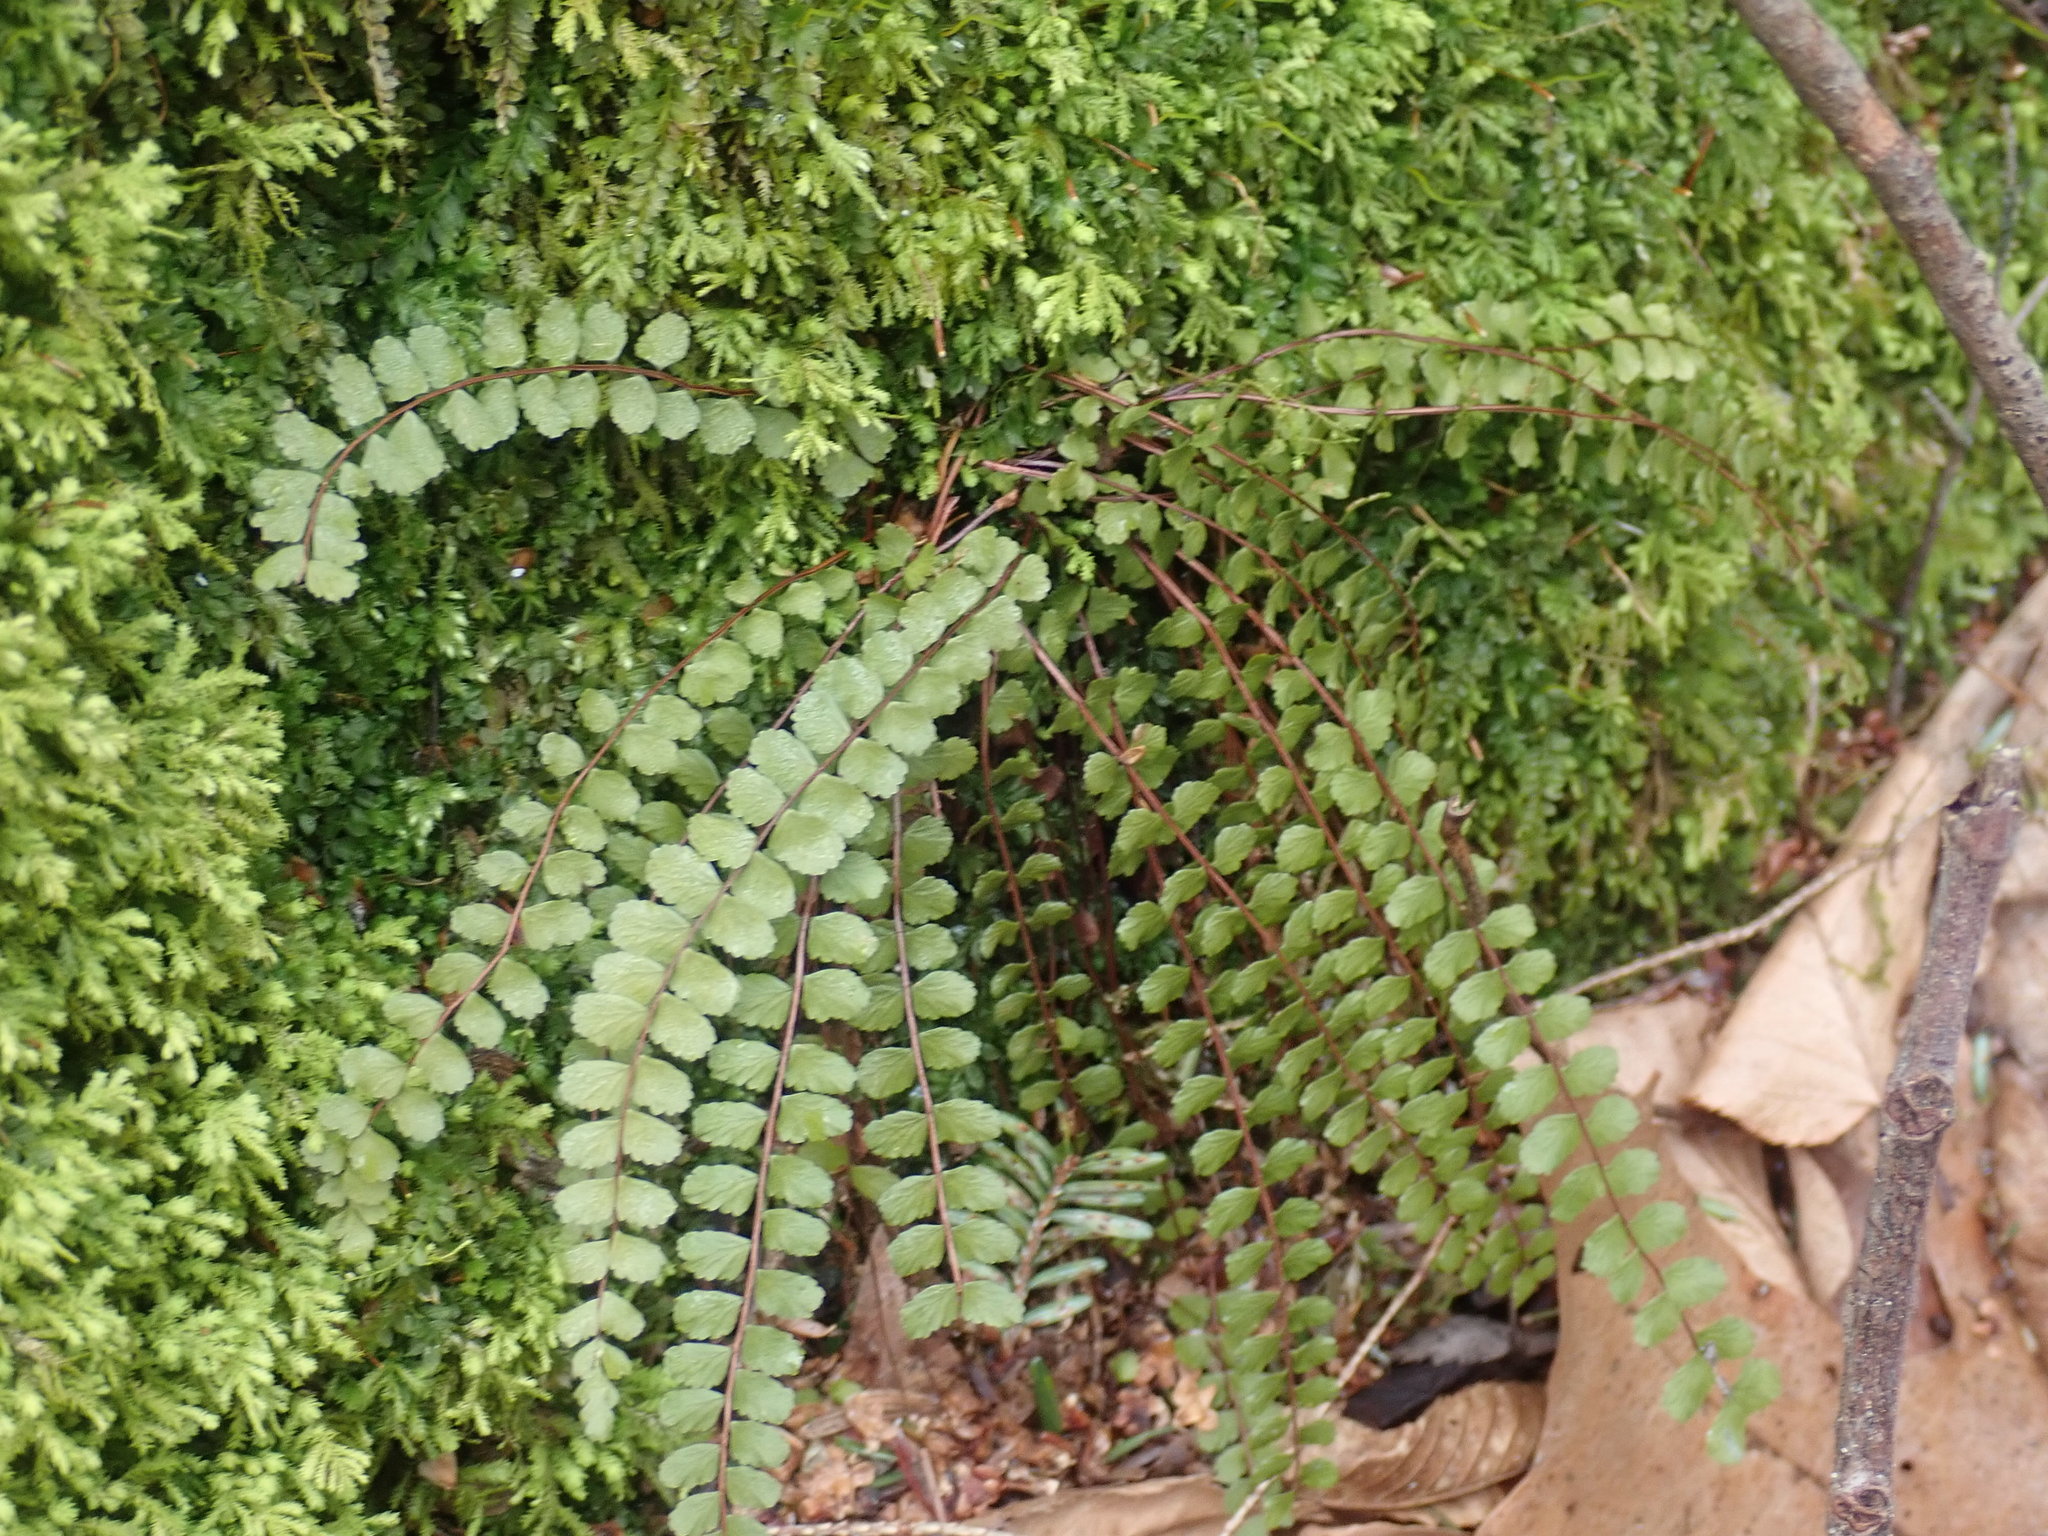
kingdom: Plantae
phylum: Tracheophyta
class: Polypodiopsida
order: Polypodiales
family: Aspleniaceae
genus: Asplenium
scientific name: Asplenium trichomanes
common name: Maidenhair spleenwort
